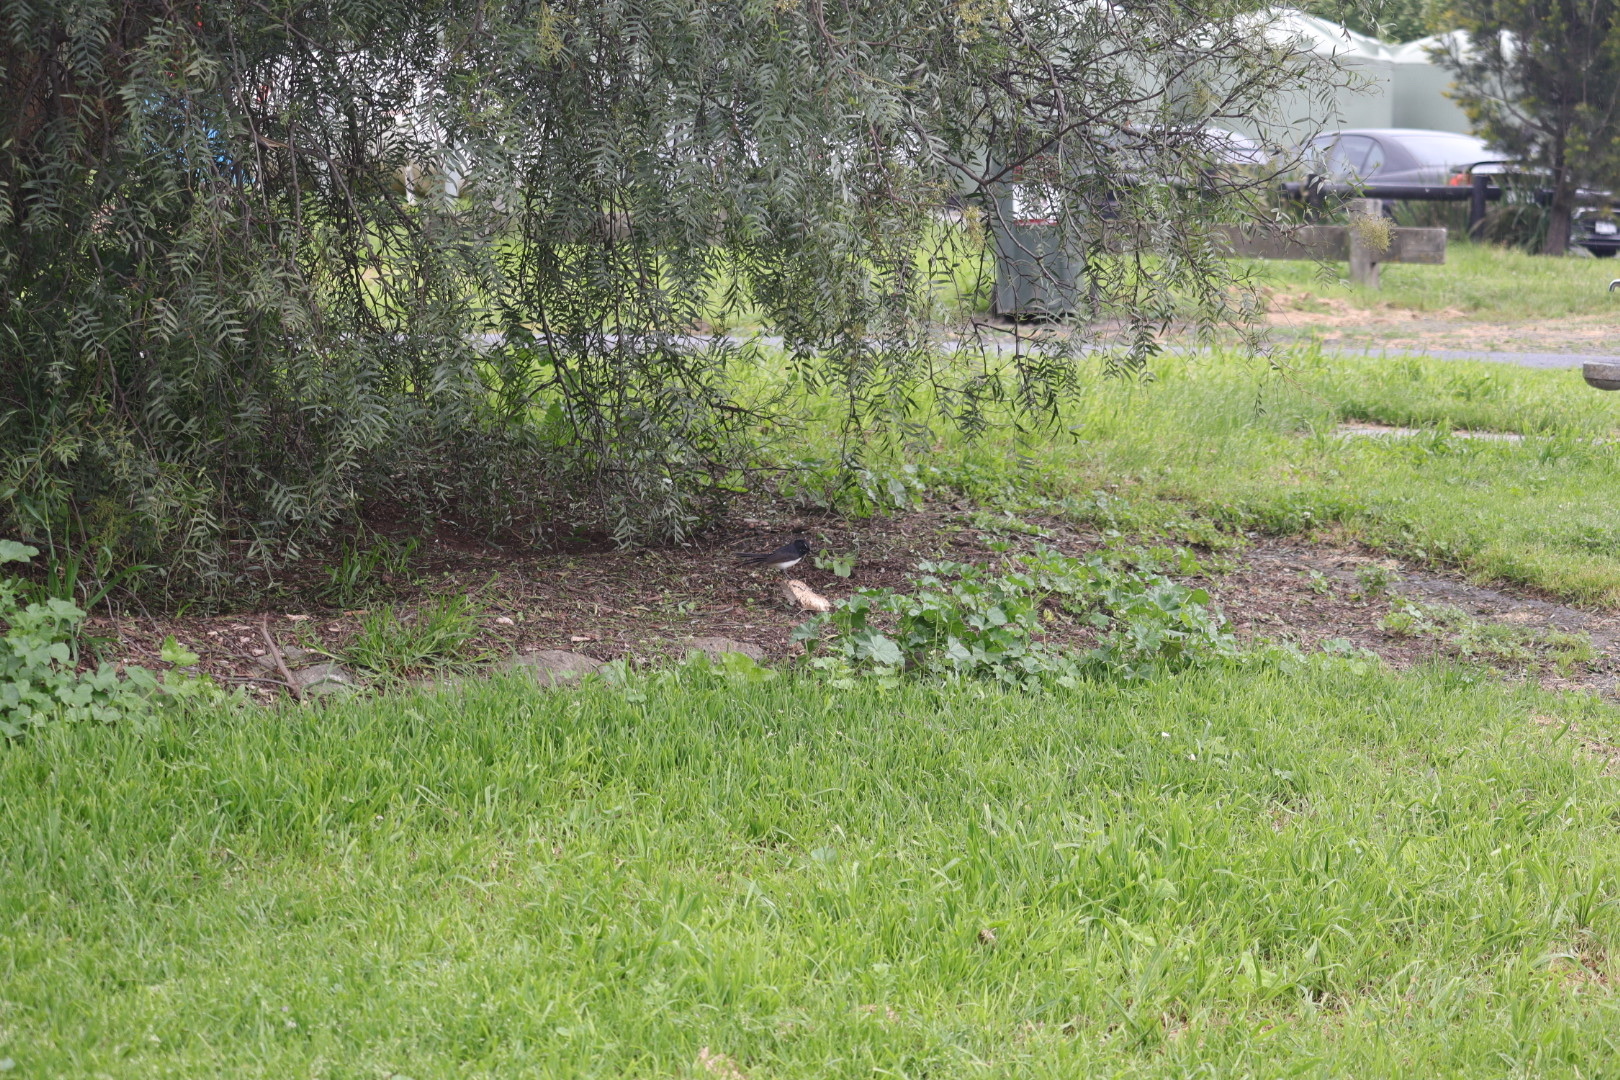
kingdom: Animalia
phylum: Chordata
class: Aves
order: Passeriformes
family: Rhipiduridae
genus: Rhipidura
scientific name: Rhipidura leucophrys
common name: Willie wagtail
